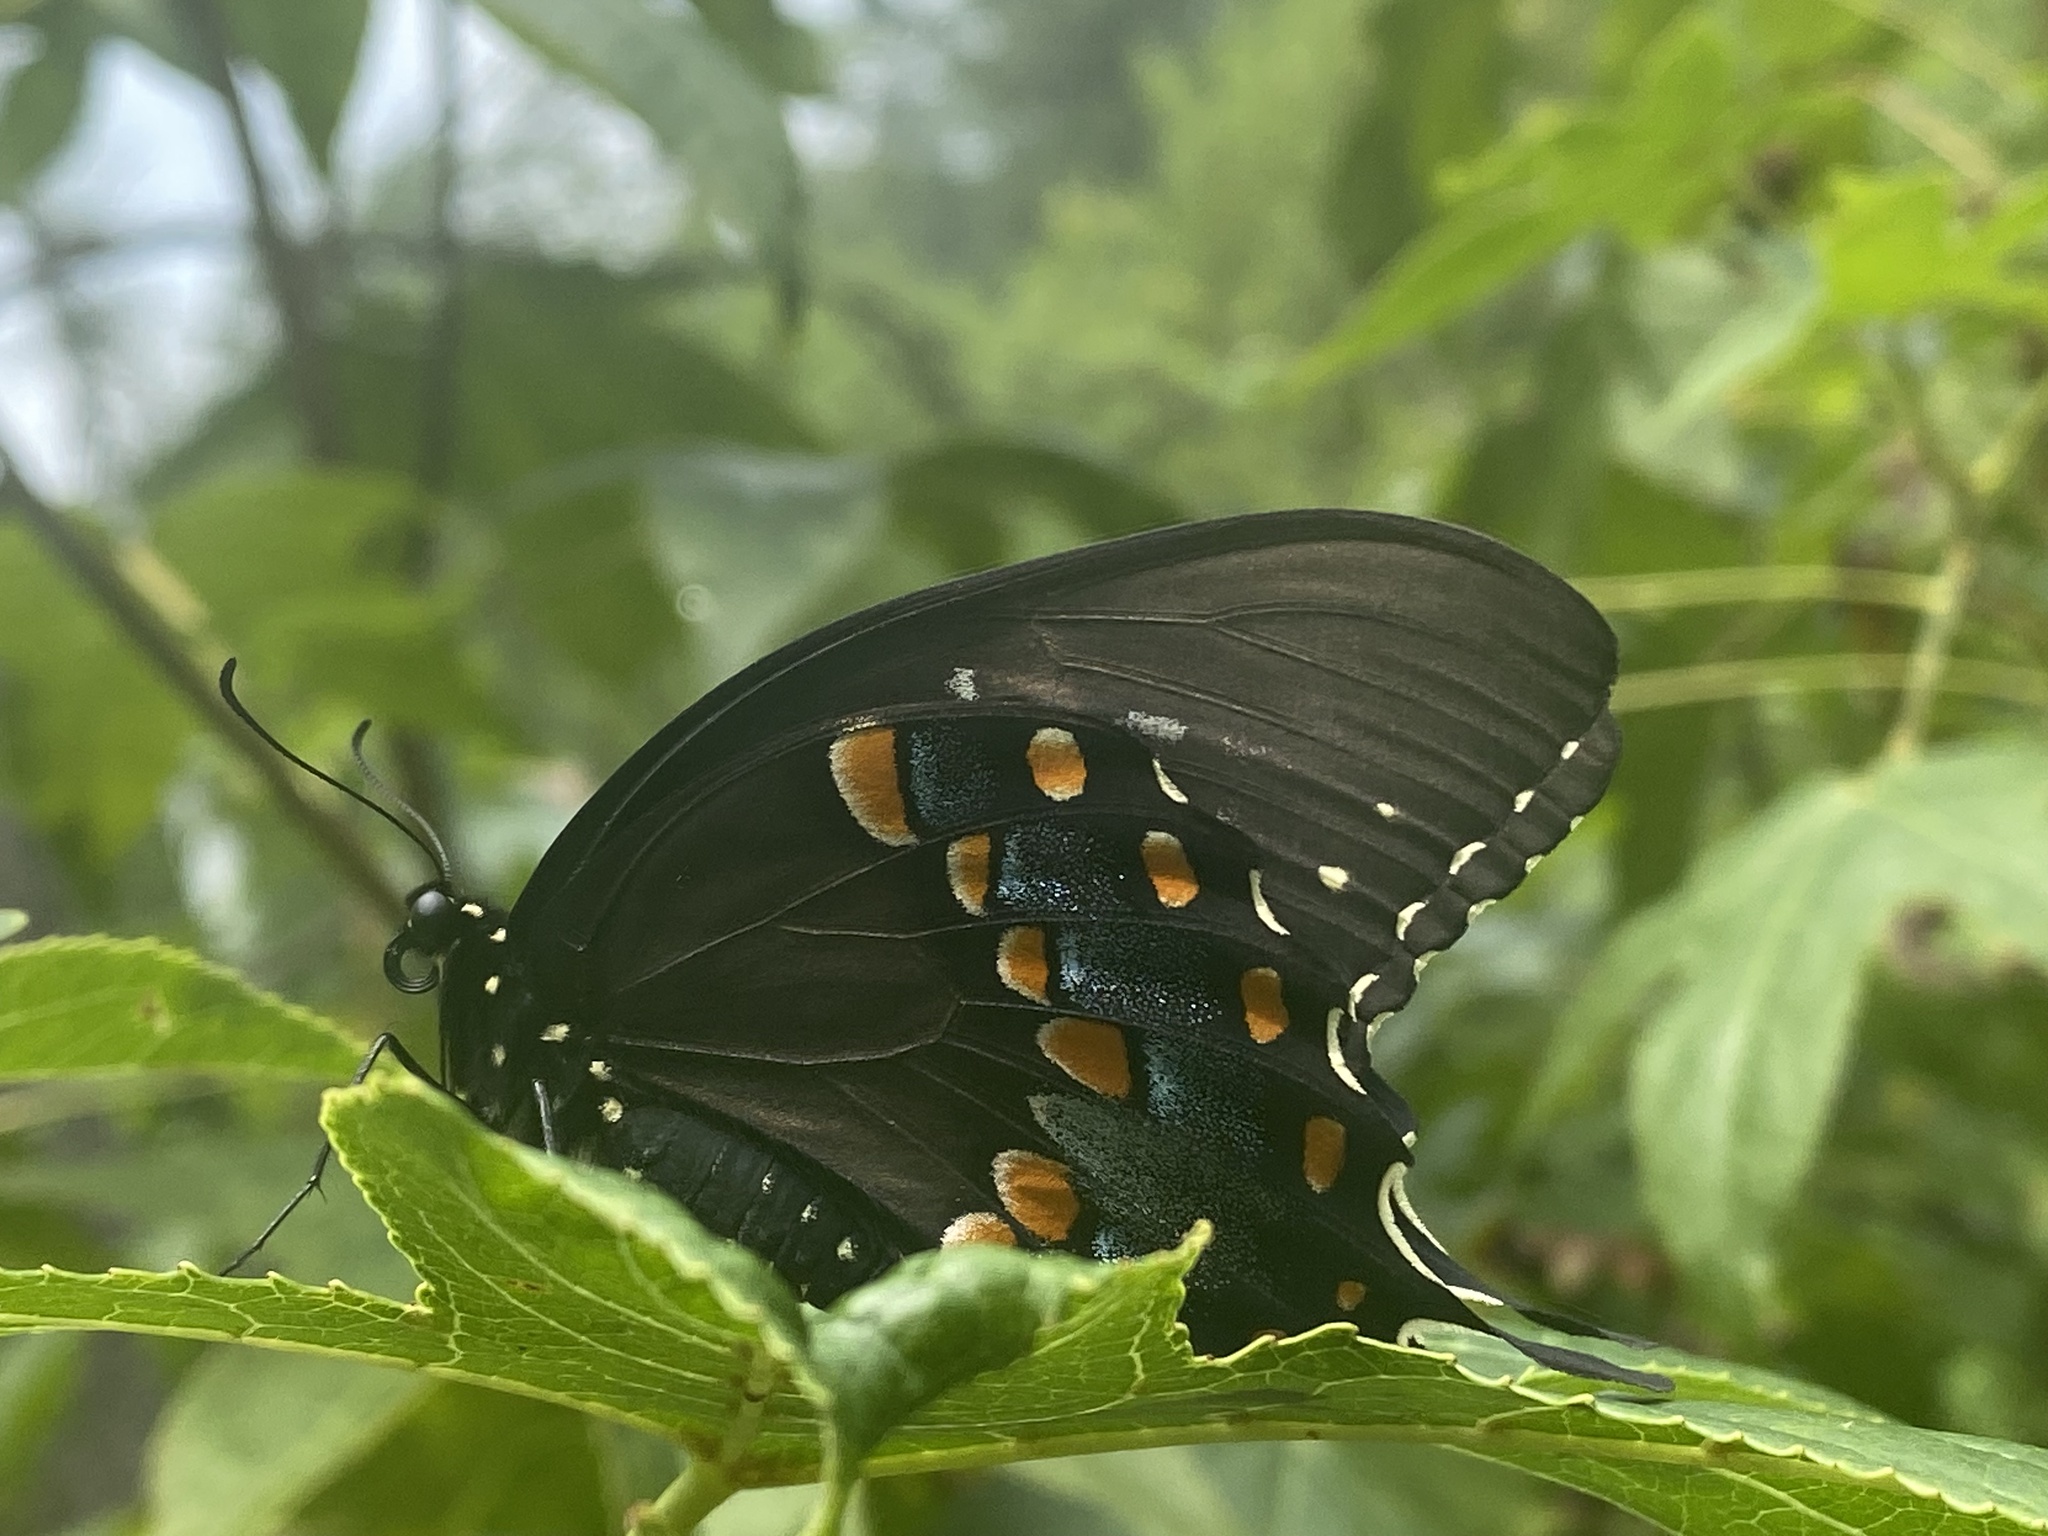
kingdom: Animalia
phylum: Arthropoda
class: Insecta
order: Lepidoptera
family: Papilionidae
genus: Papilio
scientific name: Papilio troilus
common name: Spicebush swallowtail
